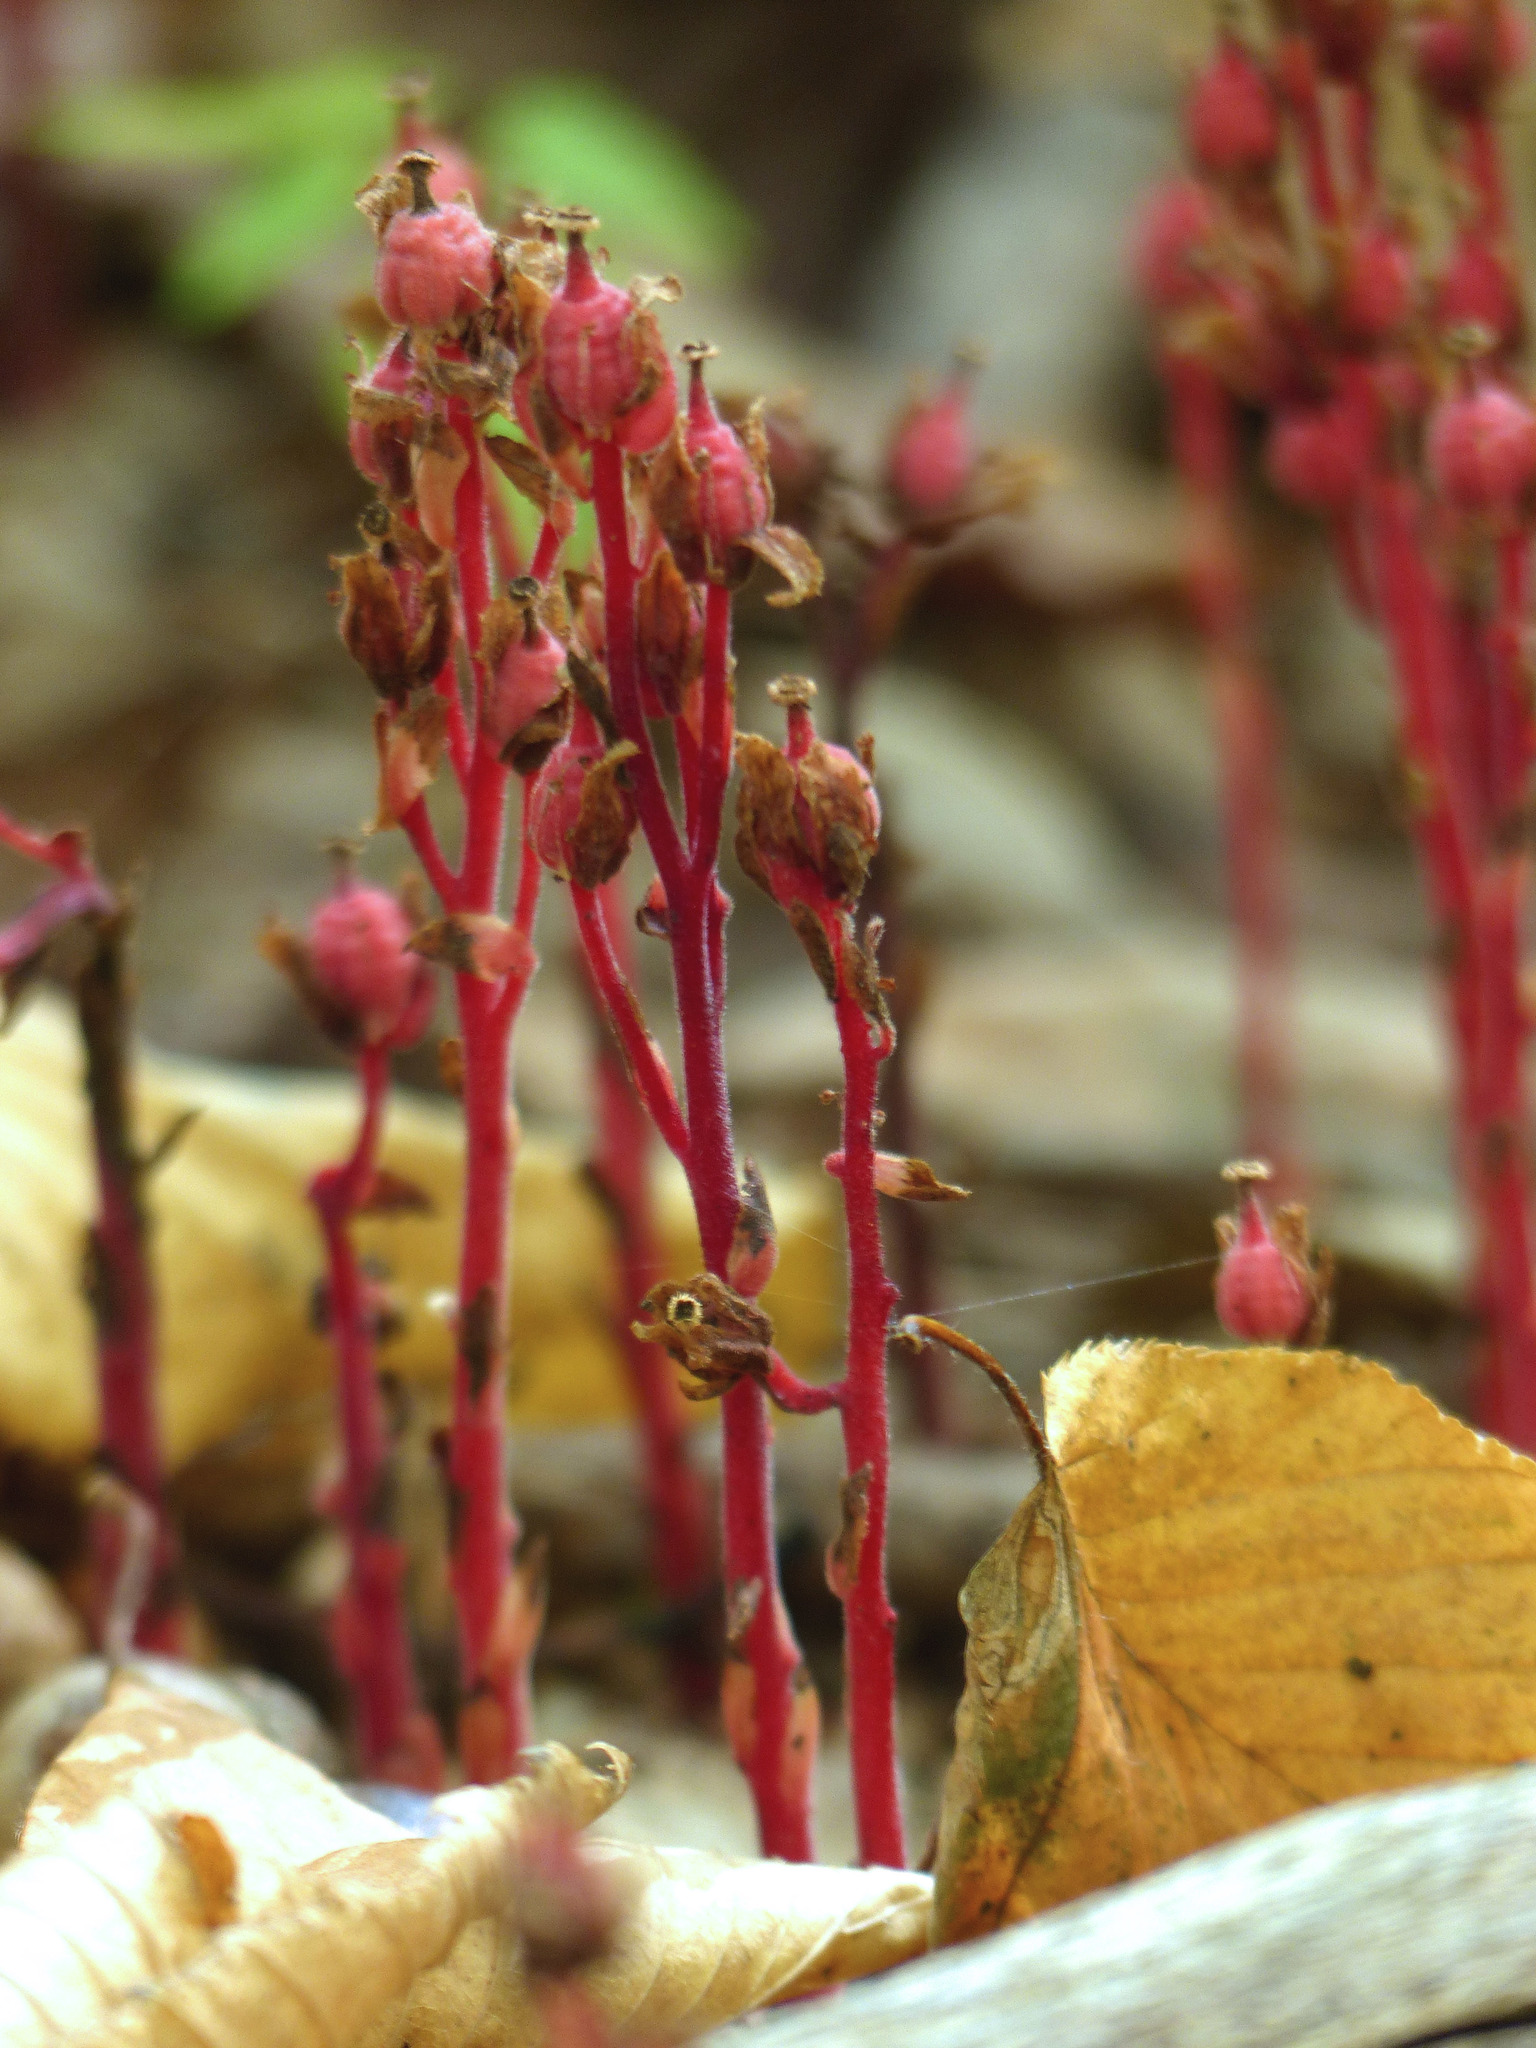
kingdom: Plantae
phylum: Tracheophyta
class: Magnoliopsida
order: Ericales
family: Ericaceae
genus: Hypopitys
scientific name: Hypopitys monotropa
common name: Yellow bird's-nest
